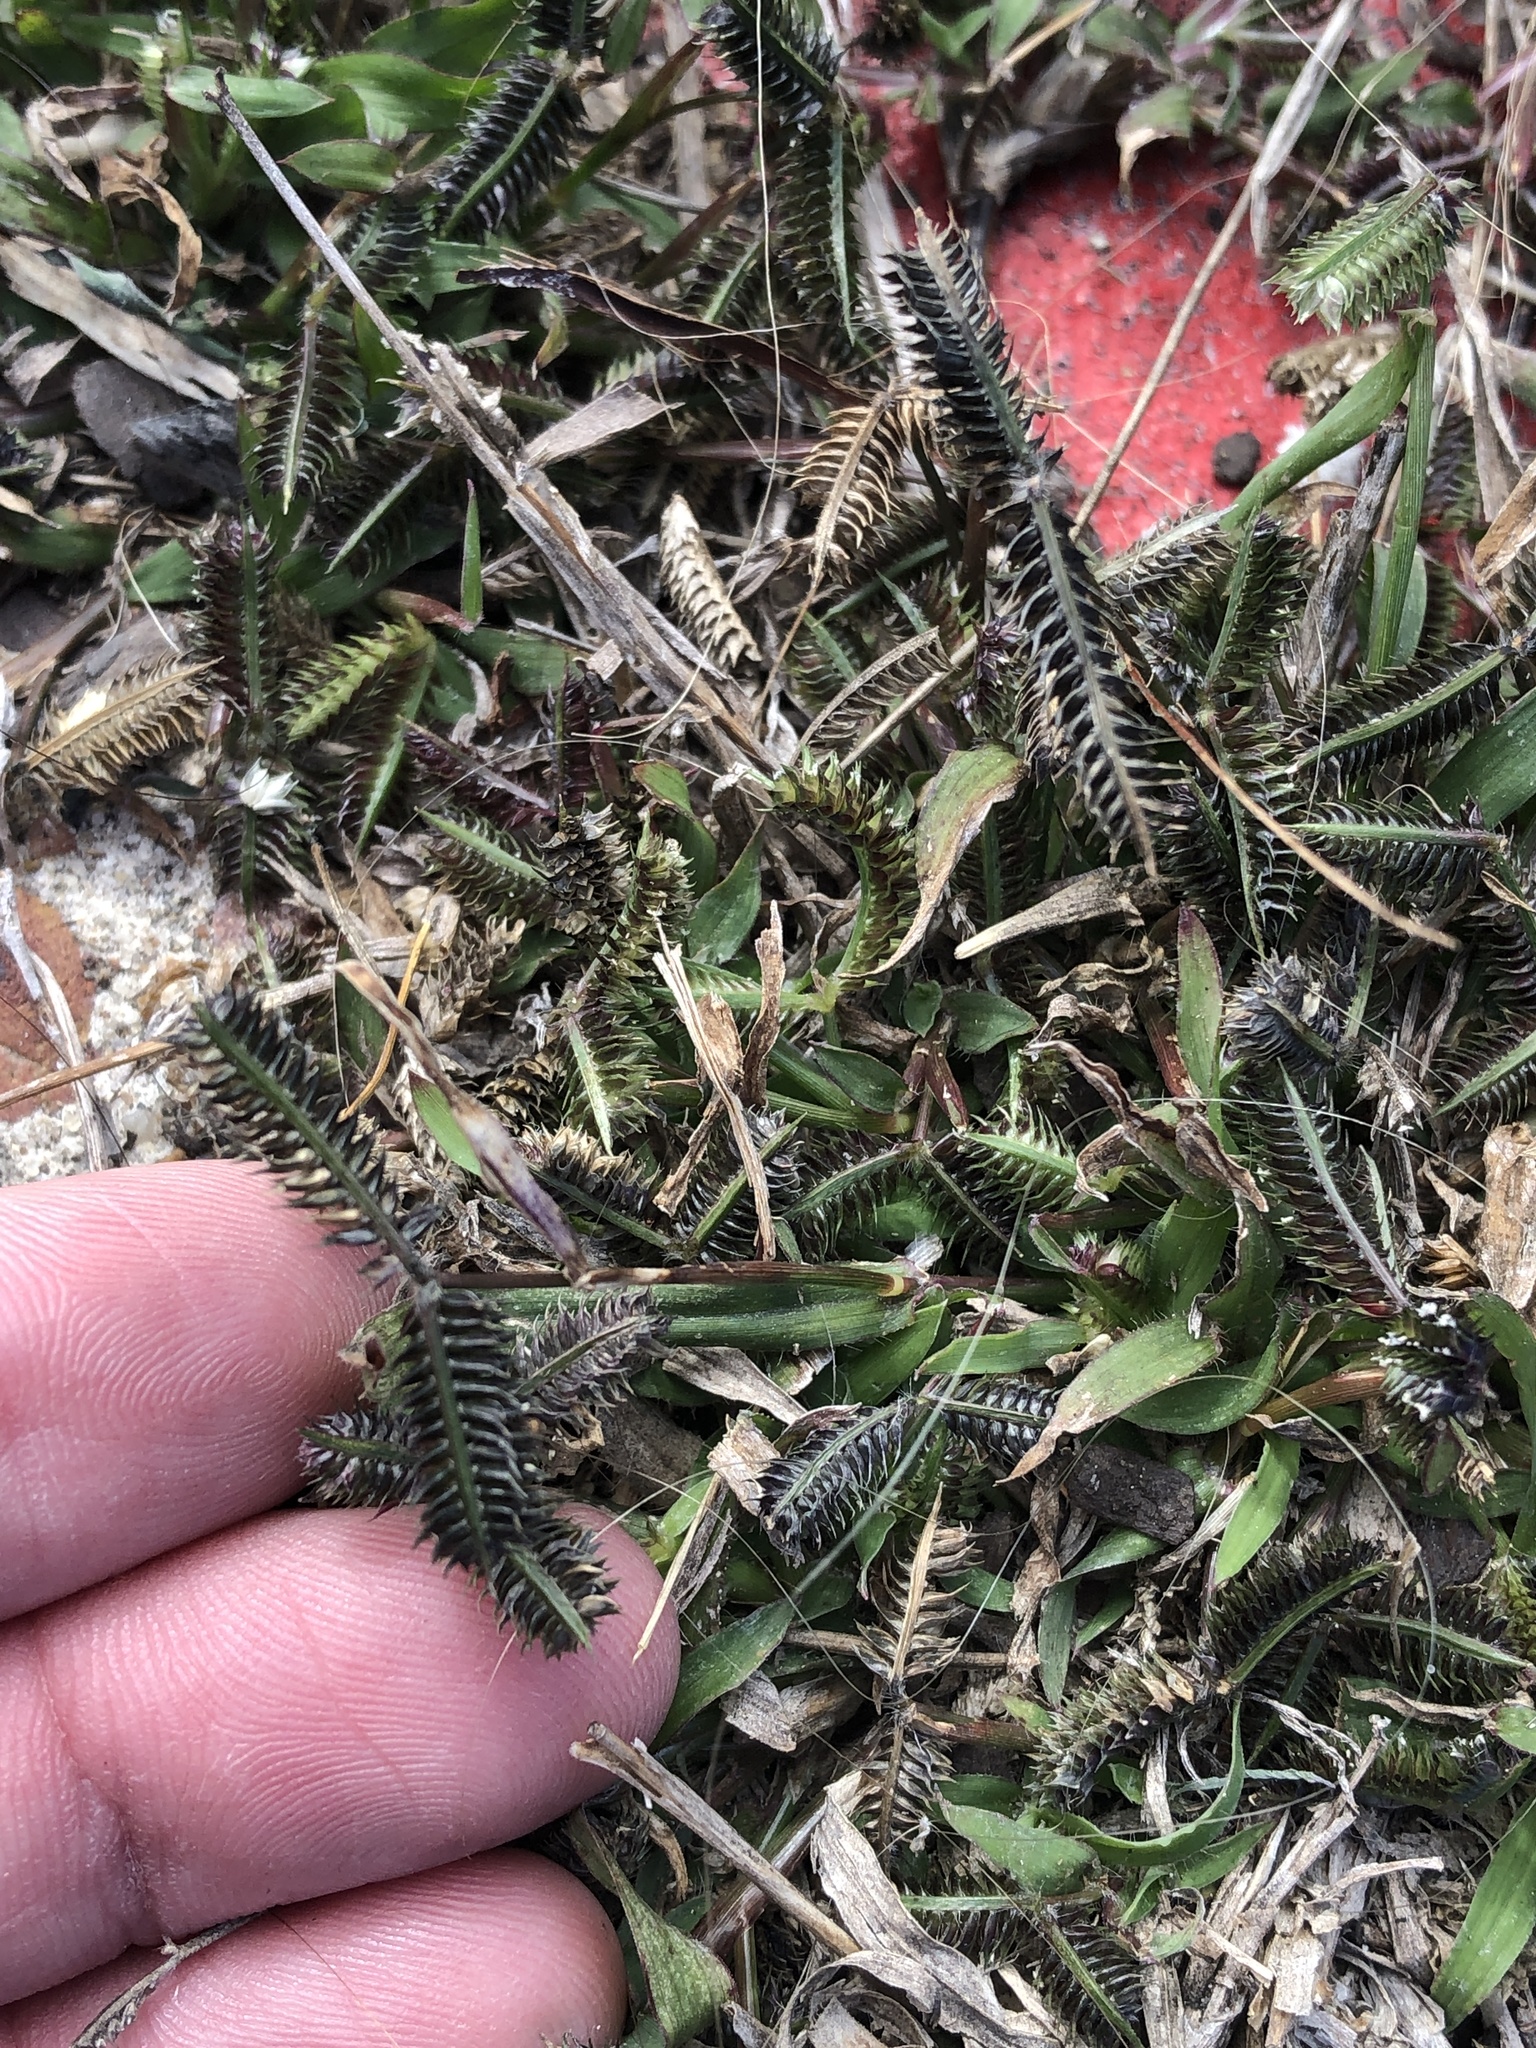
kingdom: Plantae
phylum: Tracheophyta
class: Liliopsida
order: Poales
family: Poaceae
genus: Dactyloctenium
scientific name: Dactyloctenium aegyptium
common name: Egyptian grass
